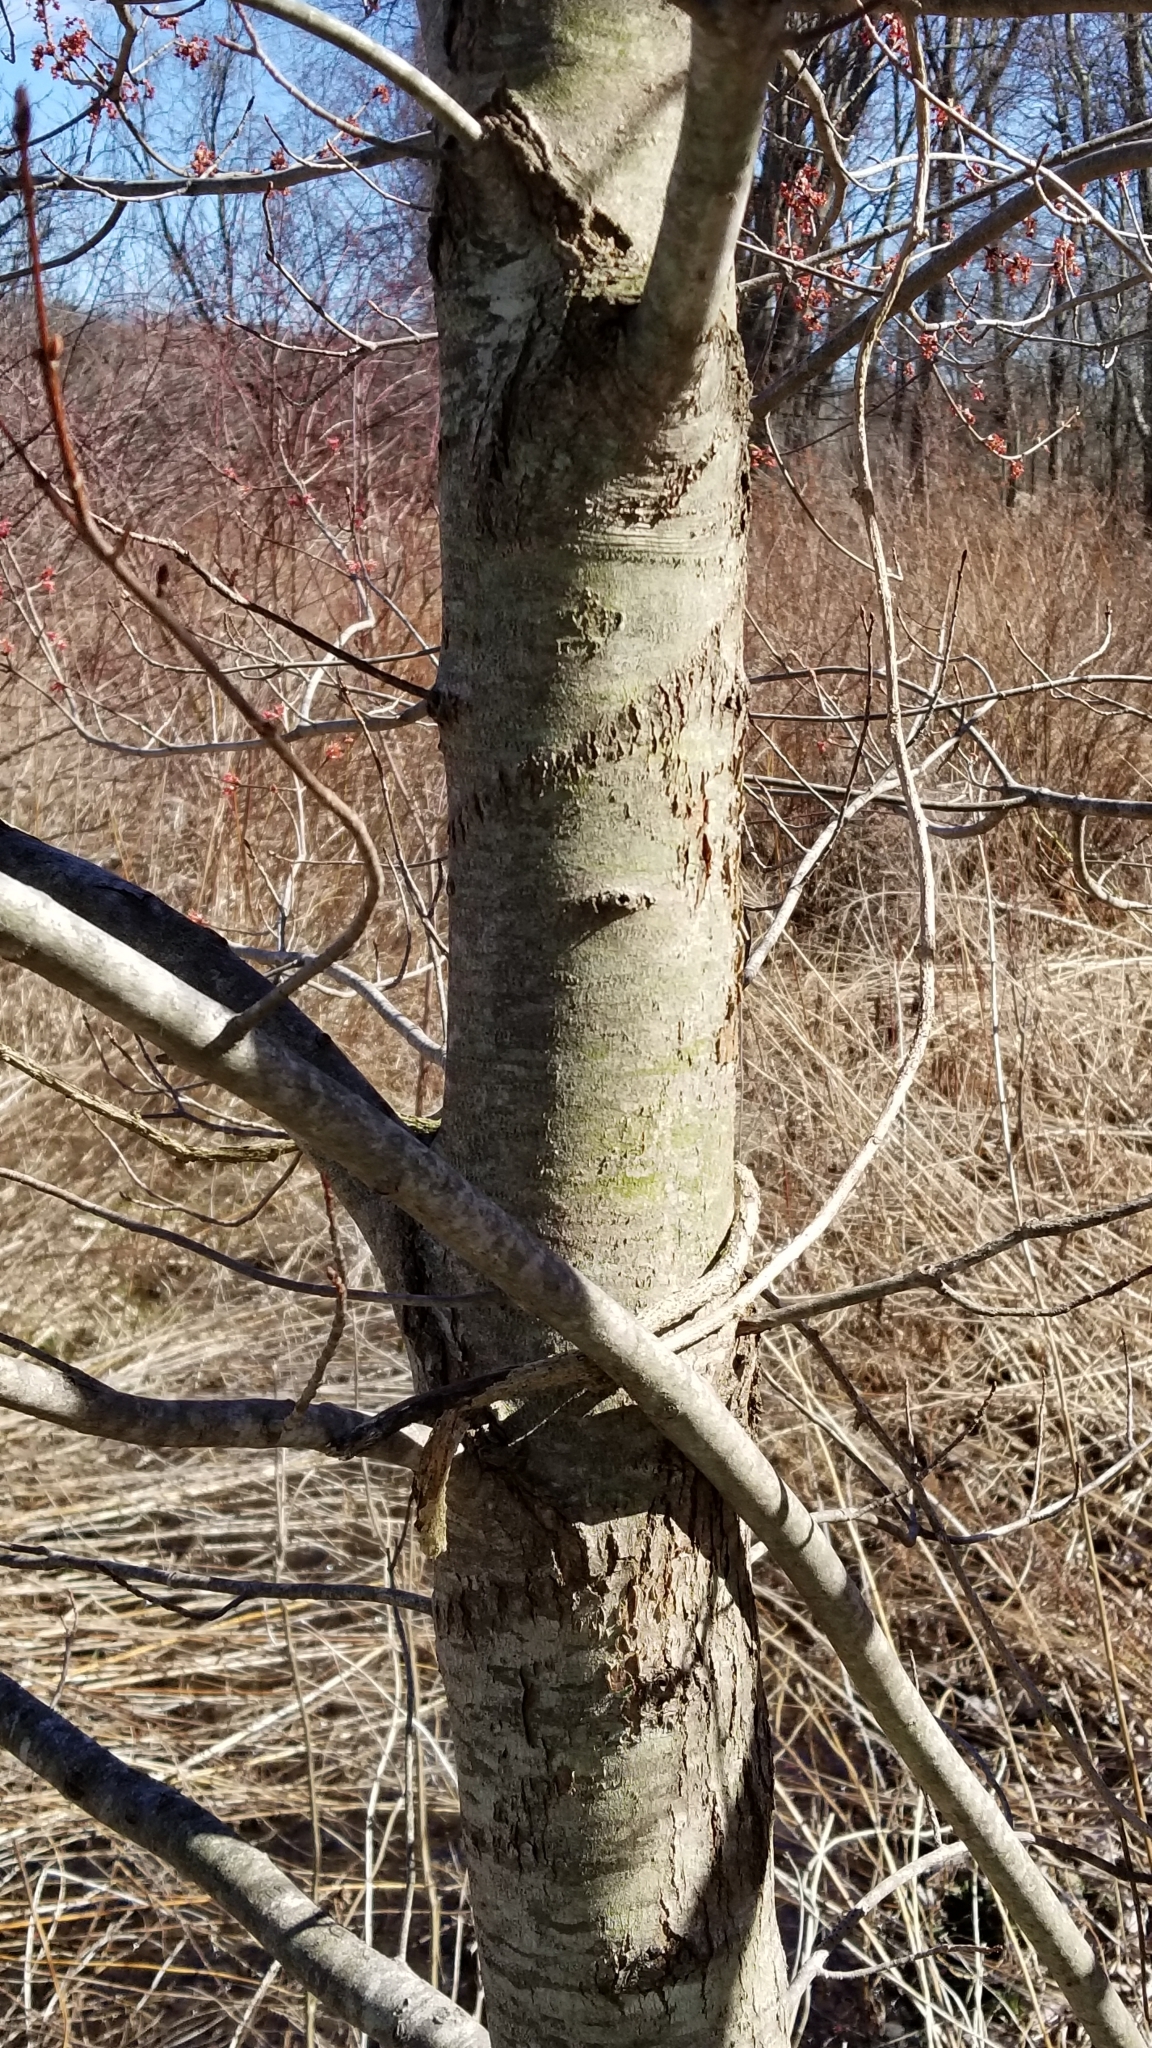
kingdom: Plantae
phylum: Tracheophyta
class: Magnoliopsida
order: Sapindales
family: Sapindaceae
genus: Acer
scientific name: Acer rubrum
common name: Red maple
